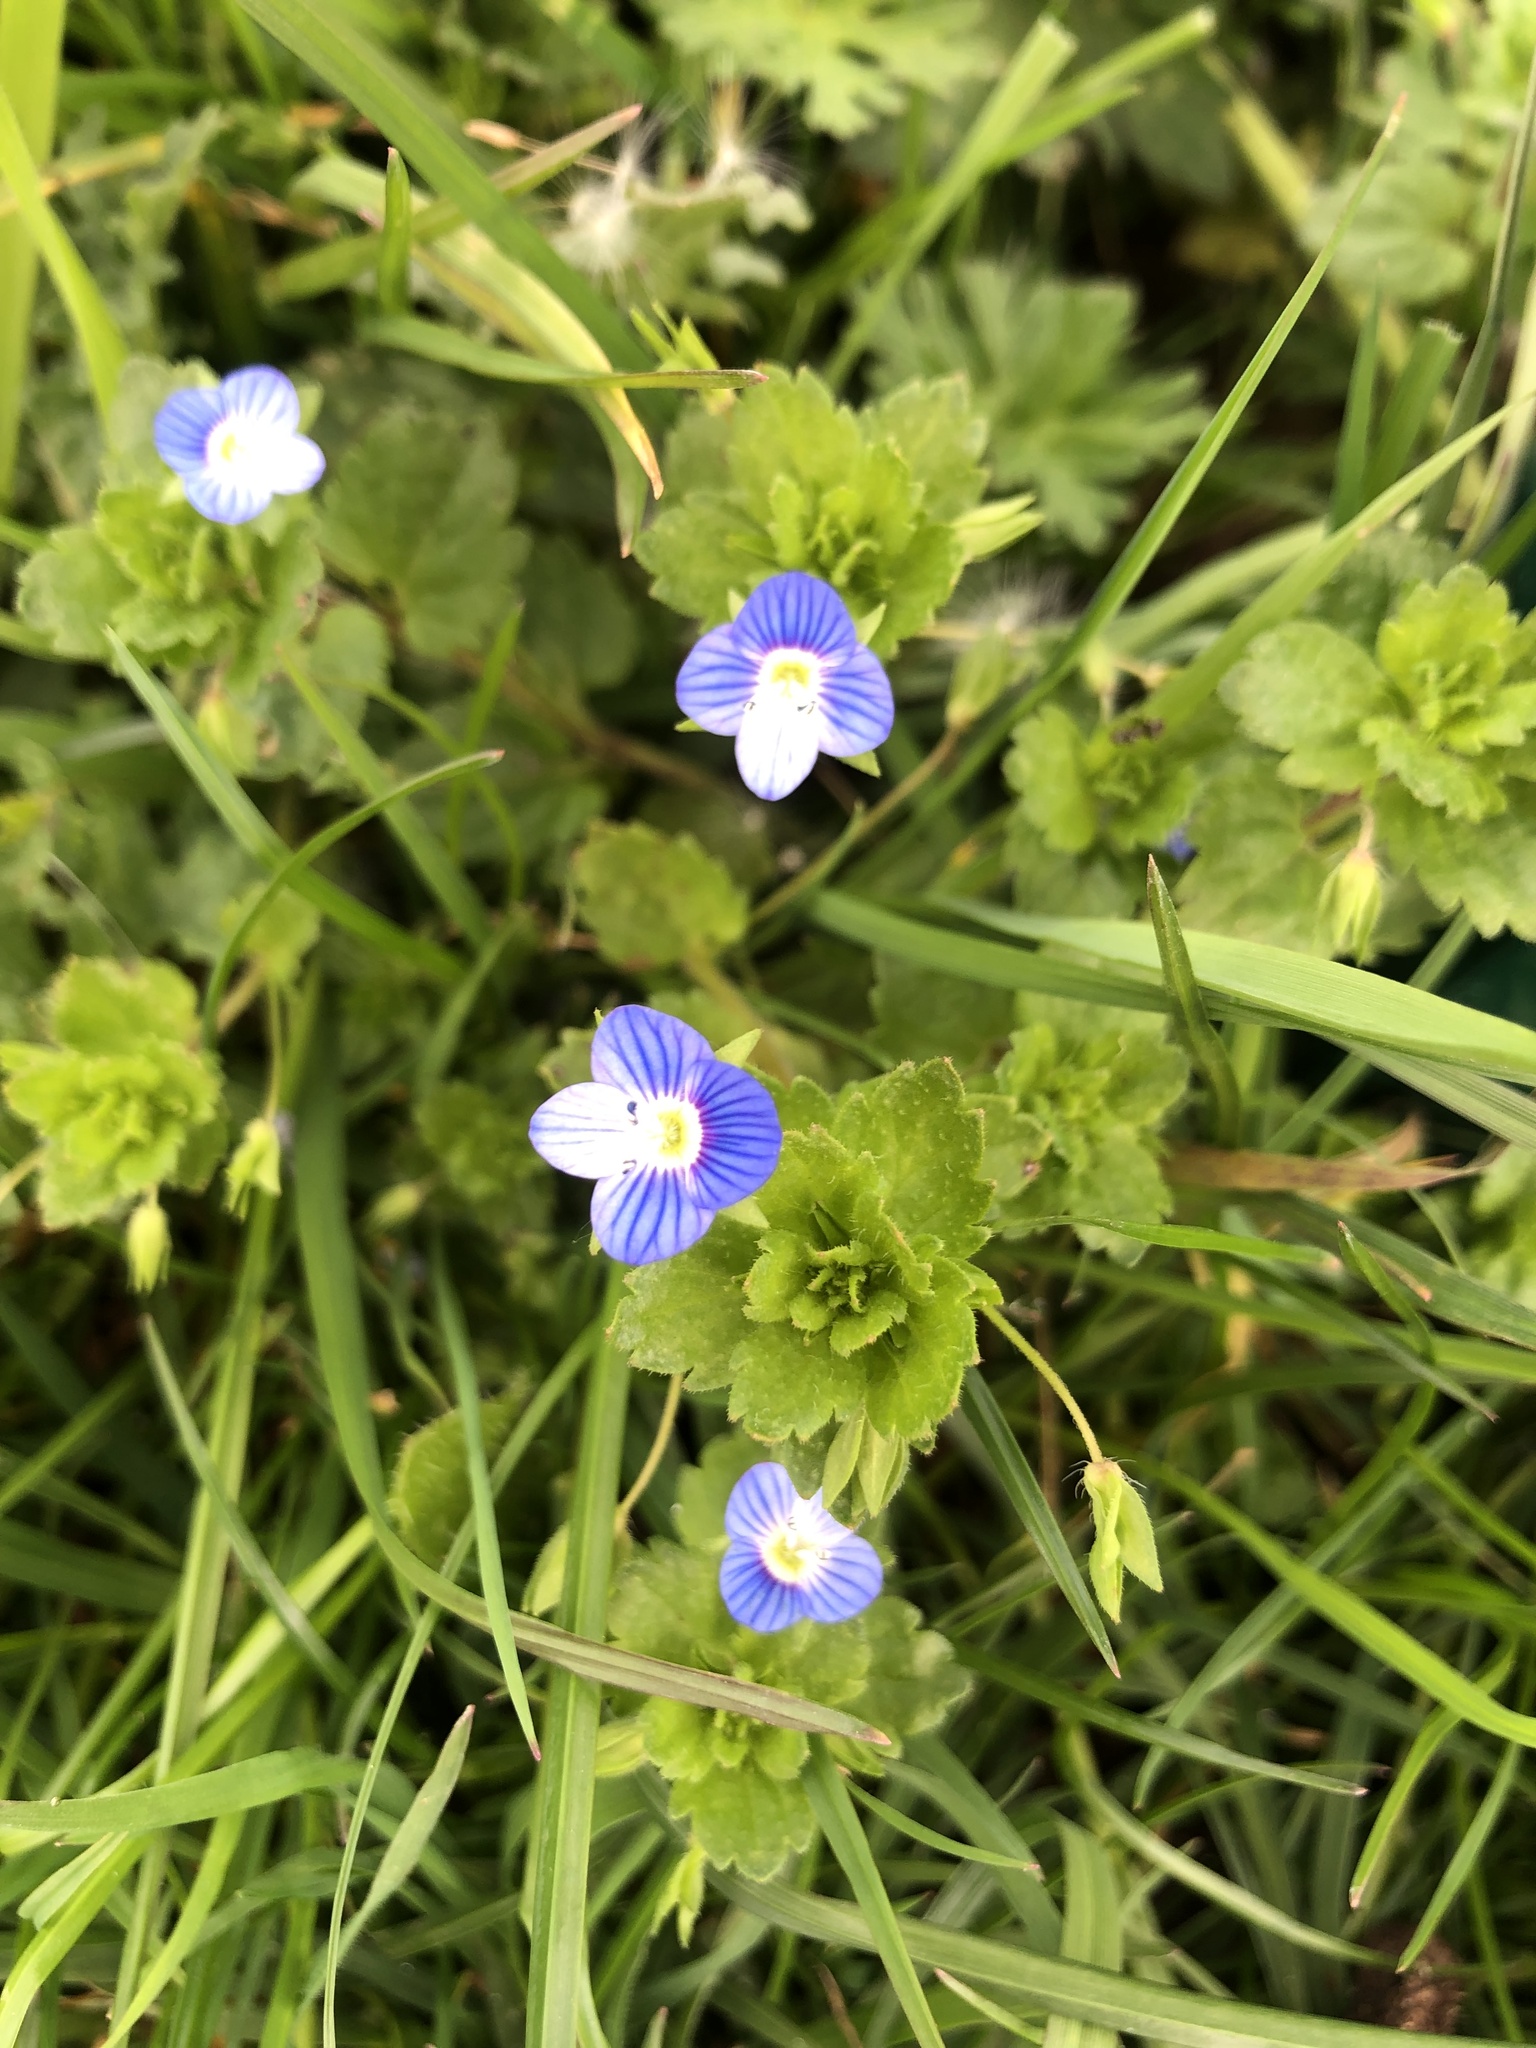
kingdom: Plantae
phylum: Tracheophyta
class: Magnoliopsida
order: Lamiales
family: Plantaginaceae
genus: Veronica
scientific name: Veronica persica
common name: Common field-speedwell
